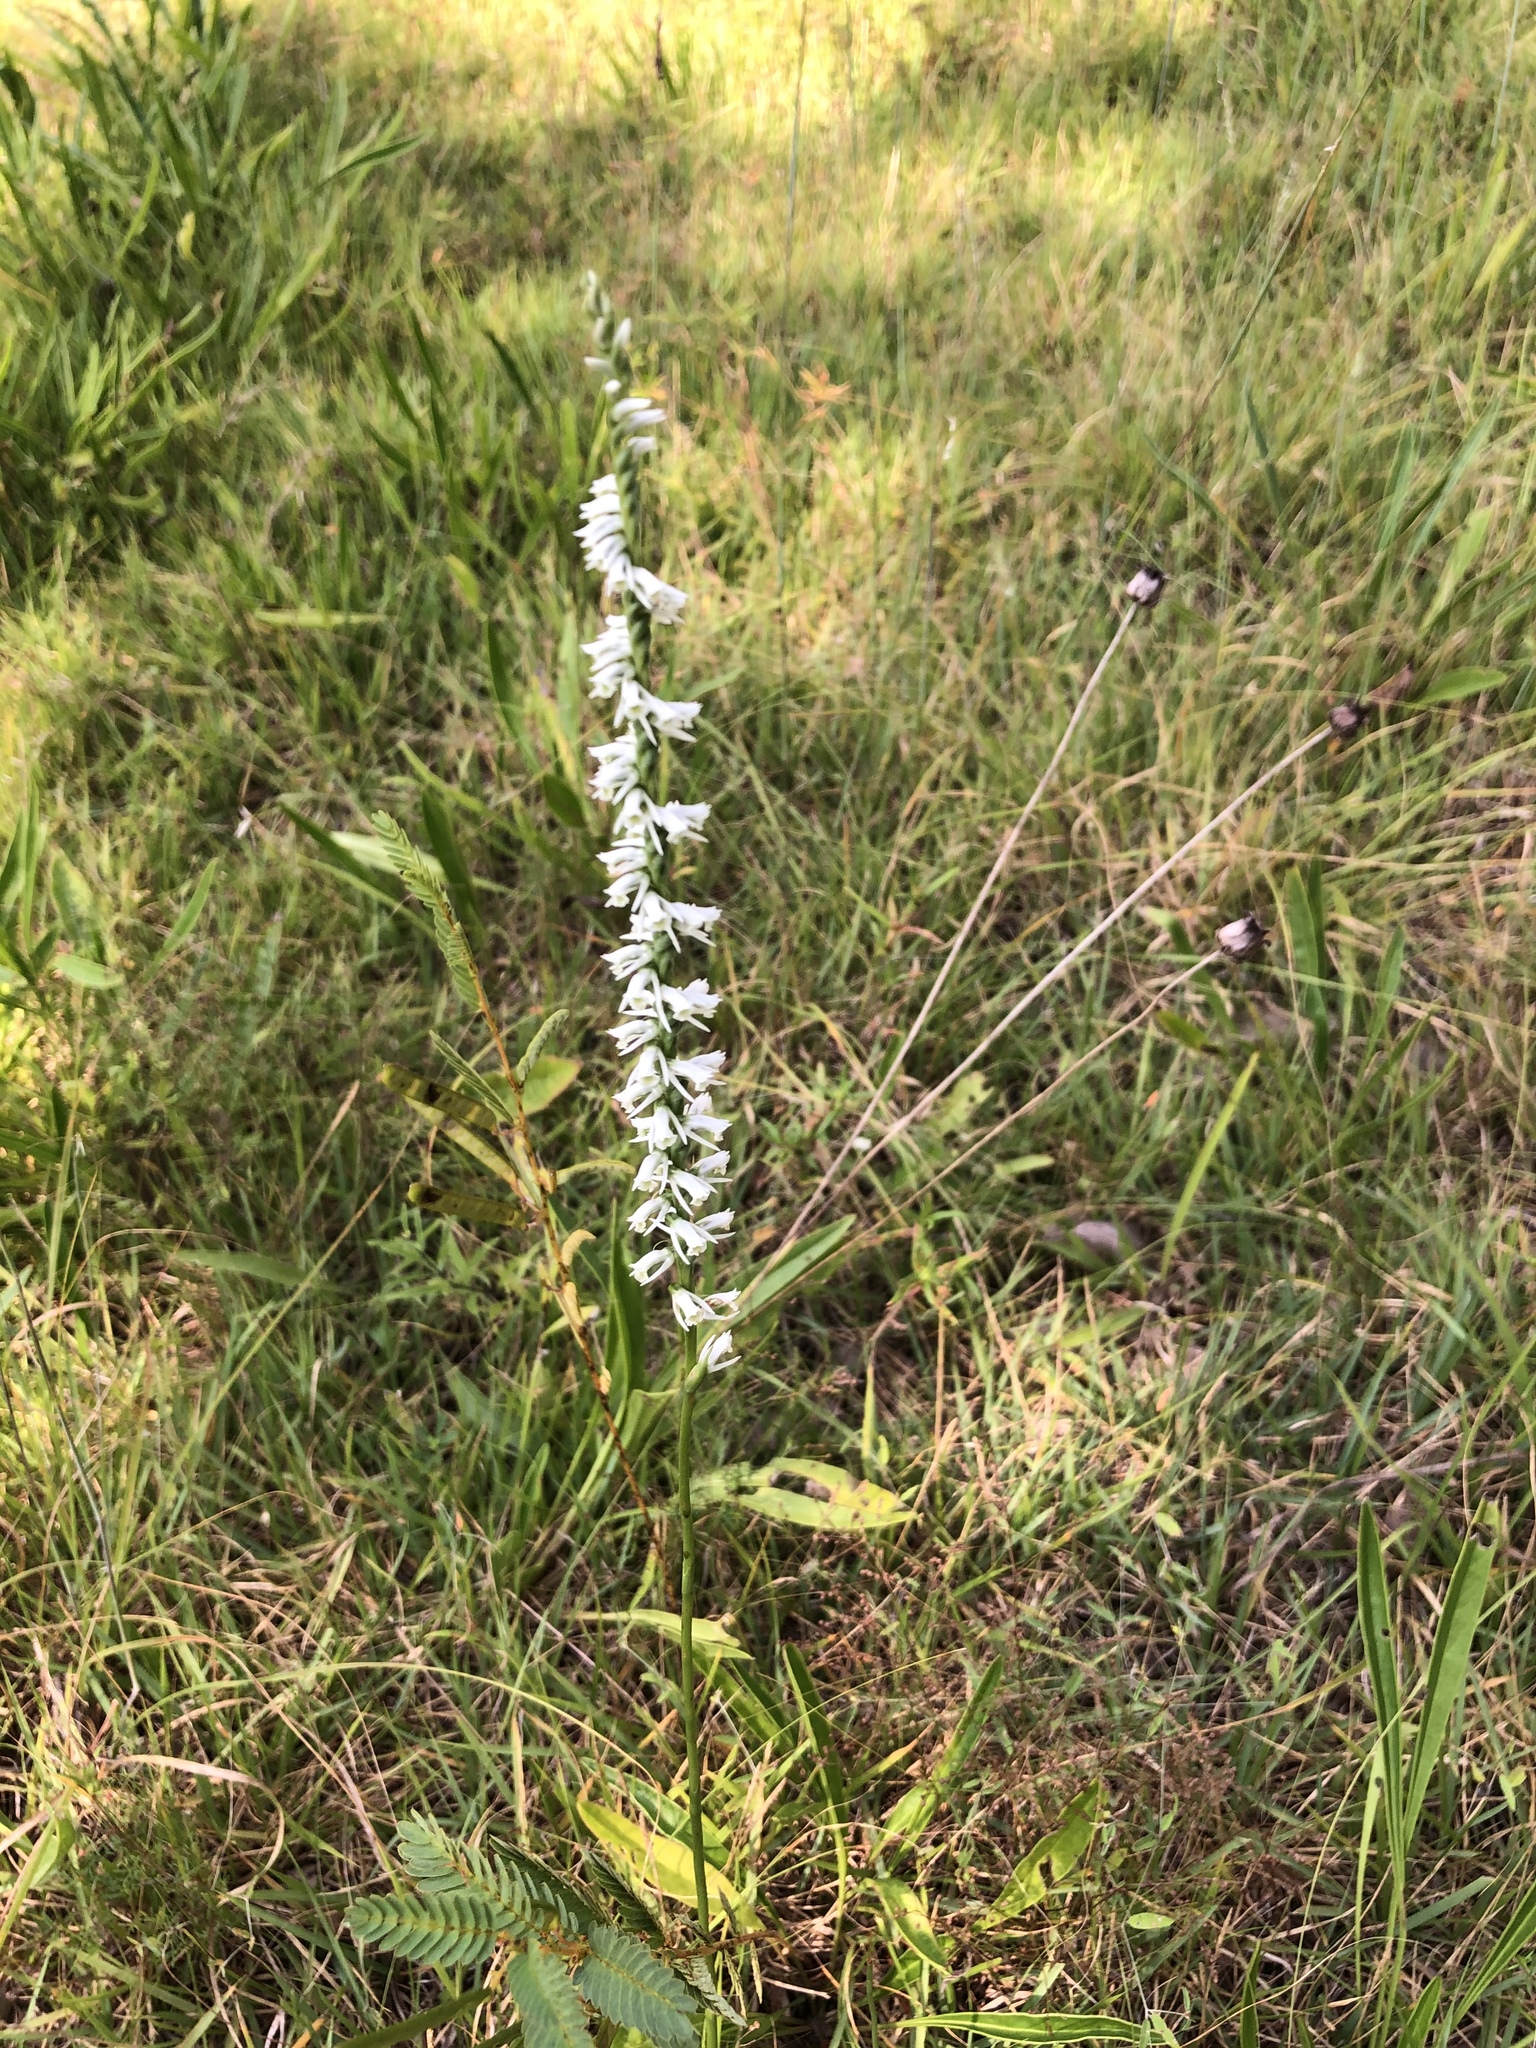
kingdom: Plantae
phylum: Tracheophyta
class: Liliopsida
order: Asparagales
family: Orchidaceae
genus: Spiranthes
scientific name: Spiranthes lacera
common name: Northern slender ladies'-tresses
